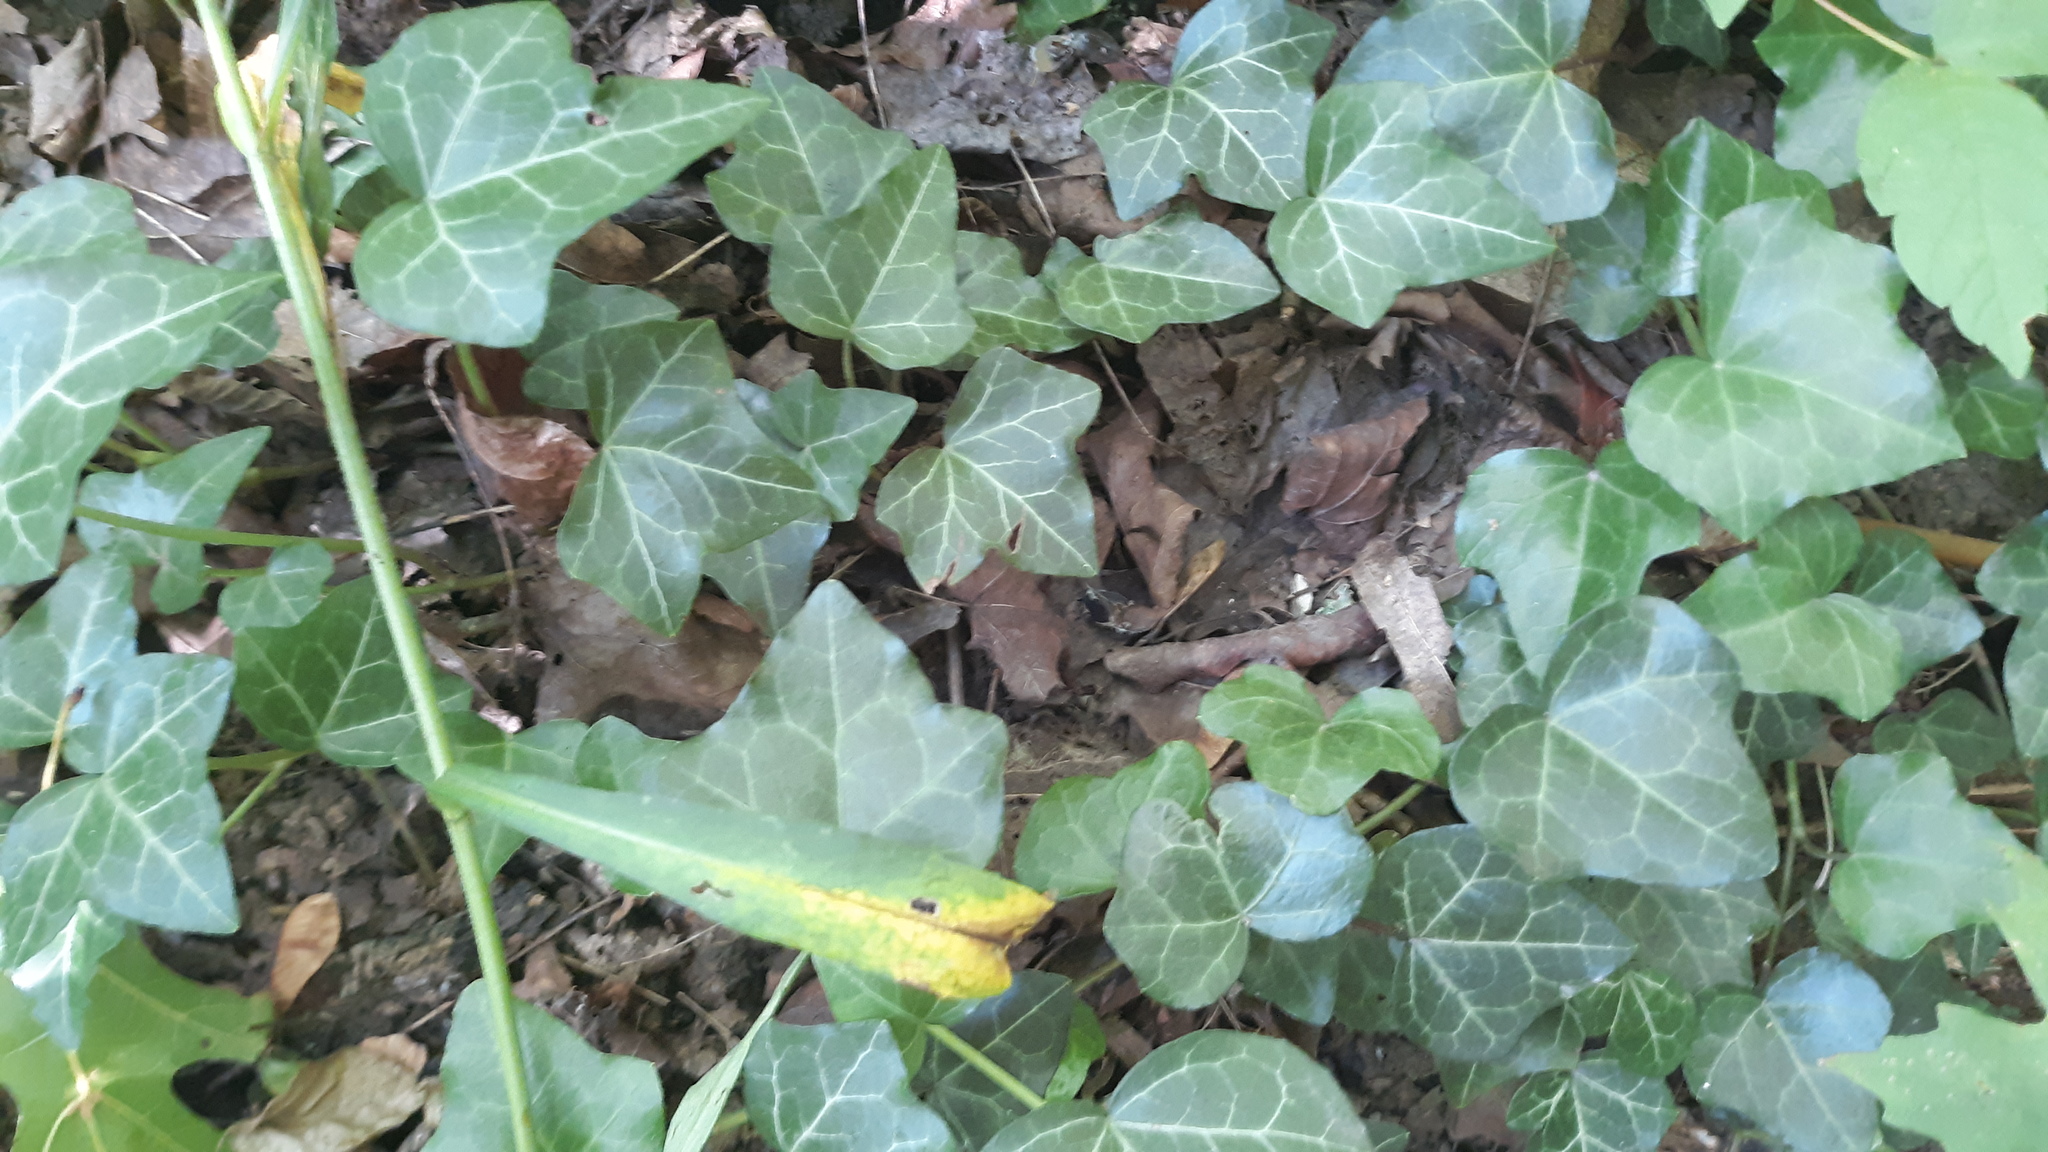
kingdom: Plantae
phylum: Tracheophyta
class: Magnoliopsida
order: Apiales
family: Araliaceae
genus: Hedera
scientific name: Hedera helix
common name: Ivy
